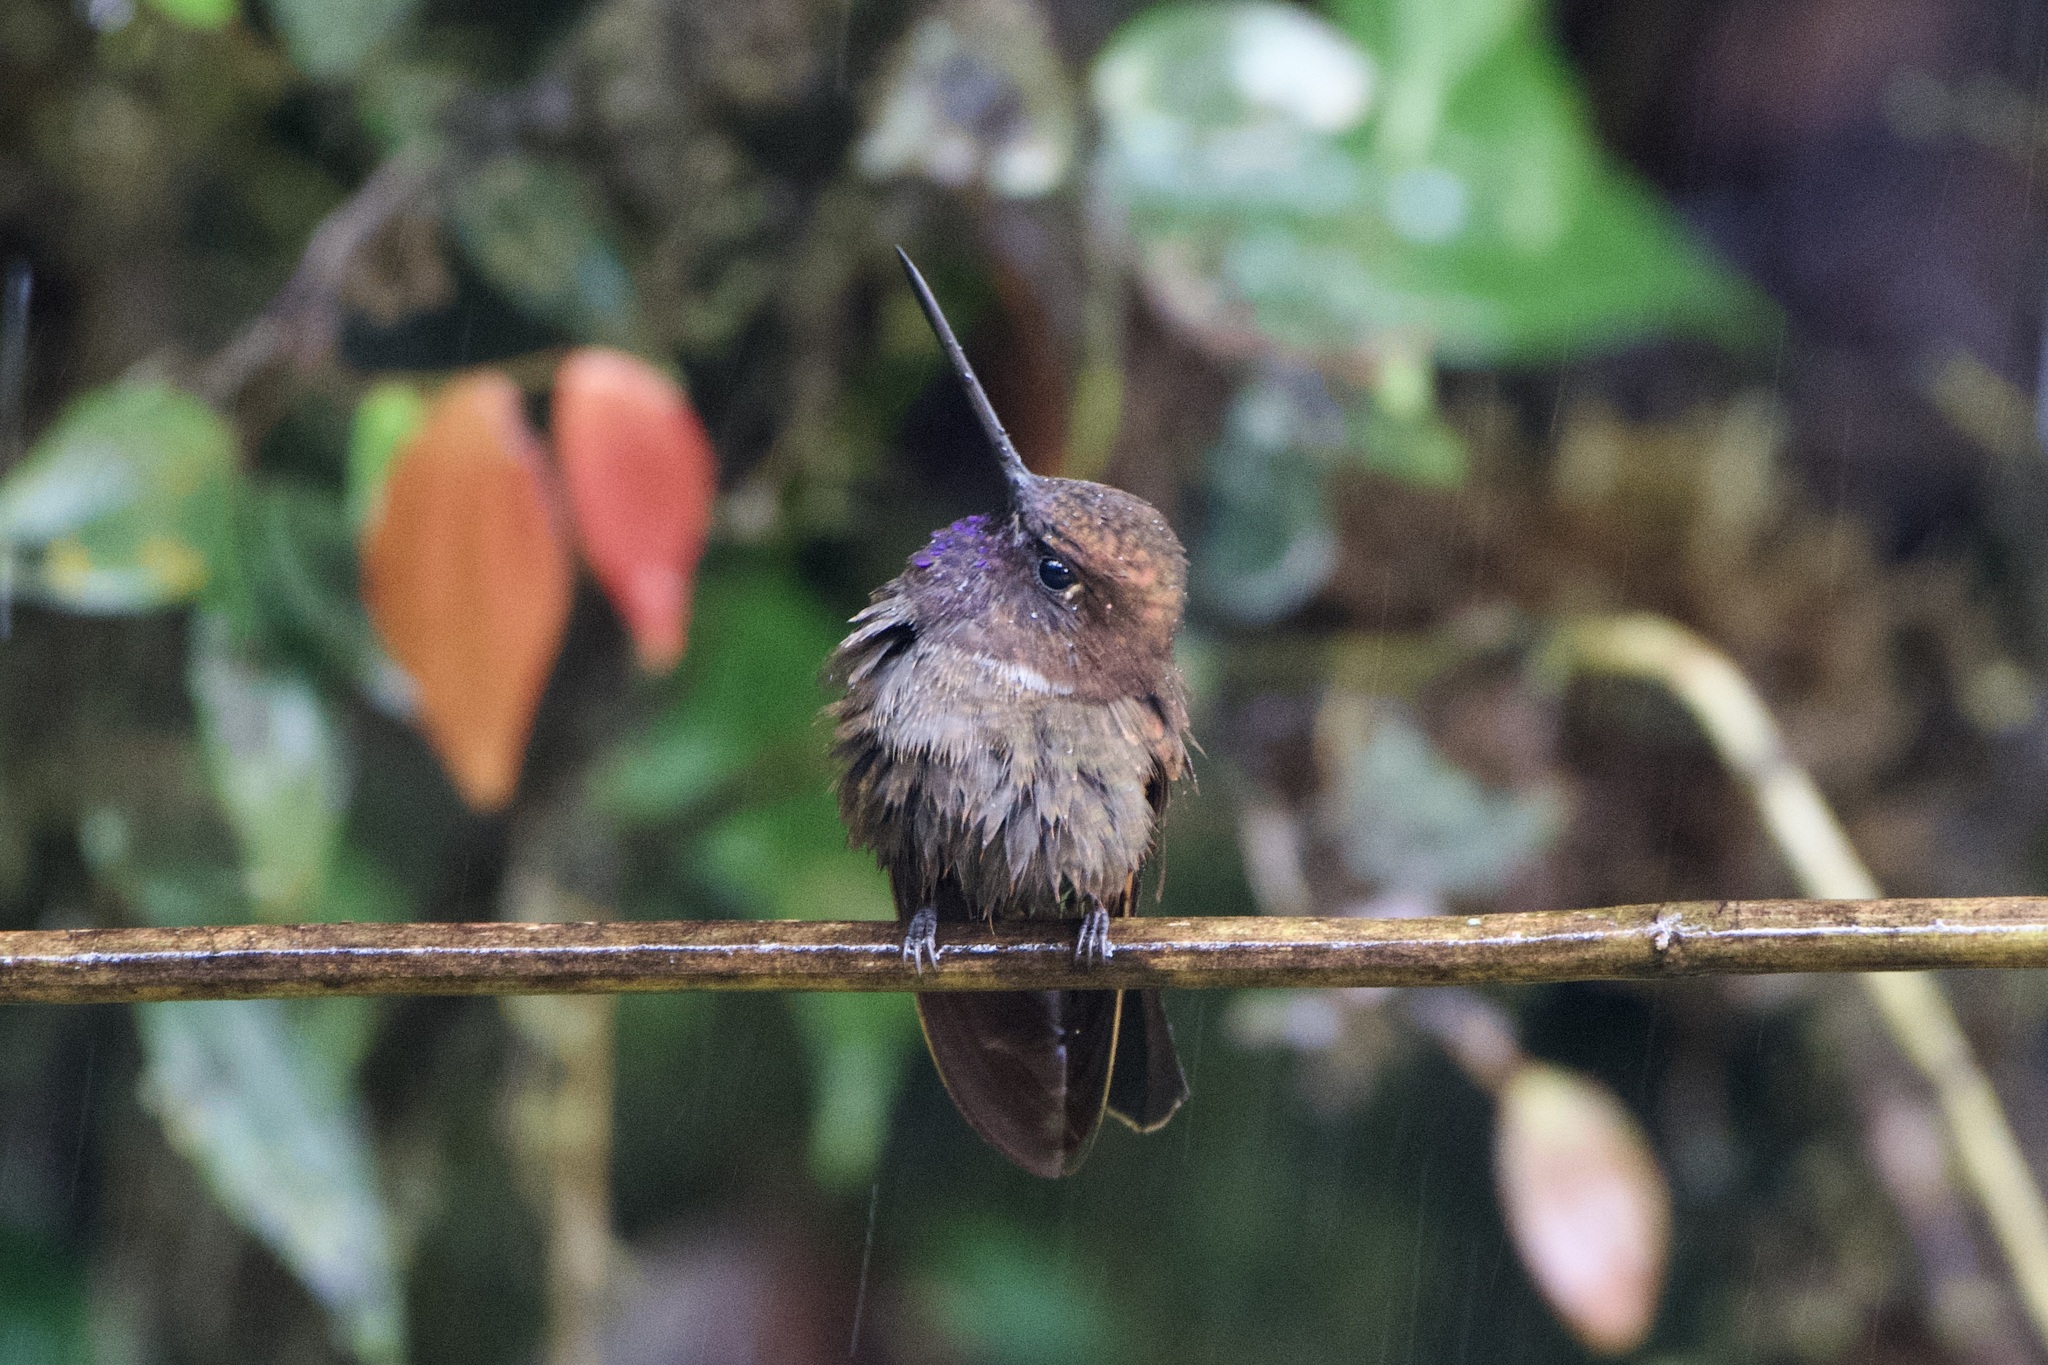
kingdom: Animalia
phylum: Chordata
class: Aves
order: Apodiformes
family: Trochilidae
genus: Coeligena
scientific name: Coeligena wilsoni
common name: Brown inca
